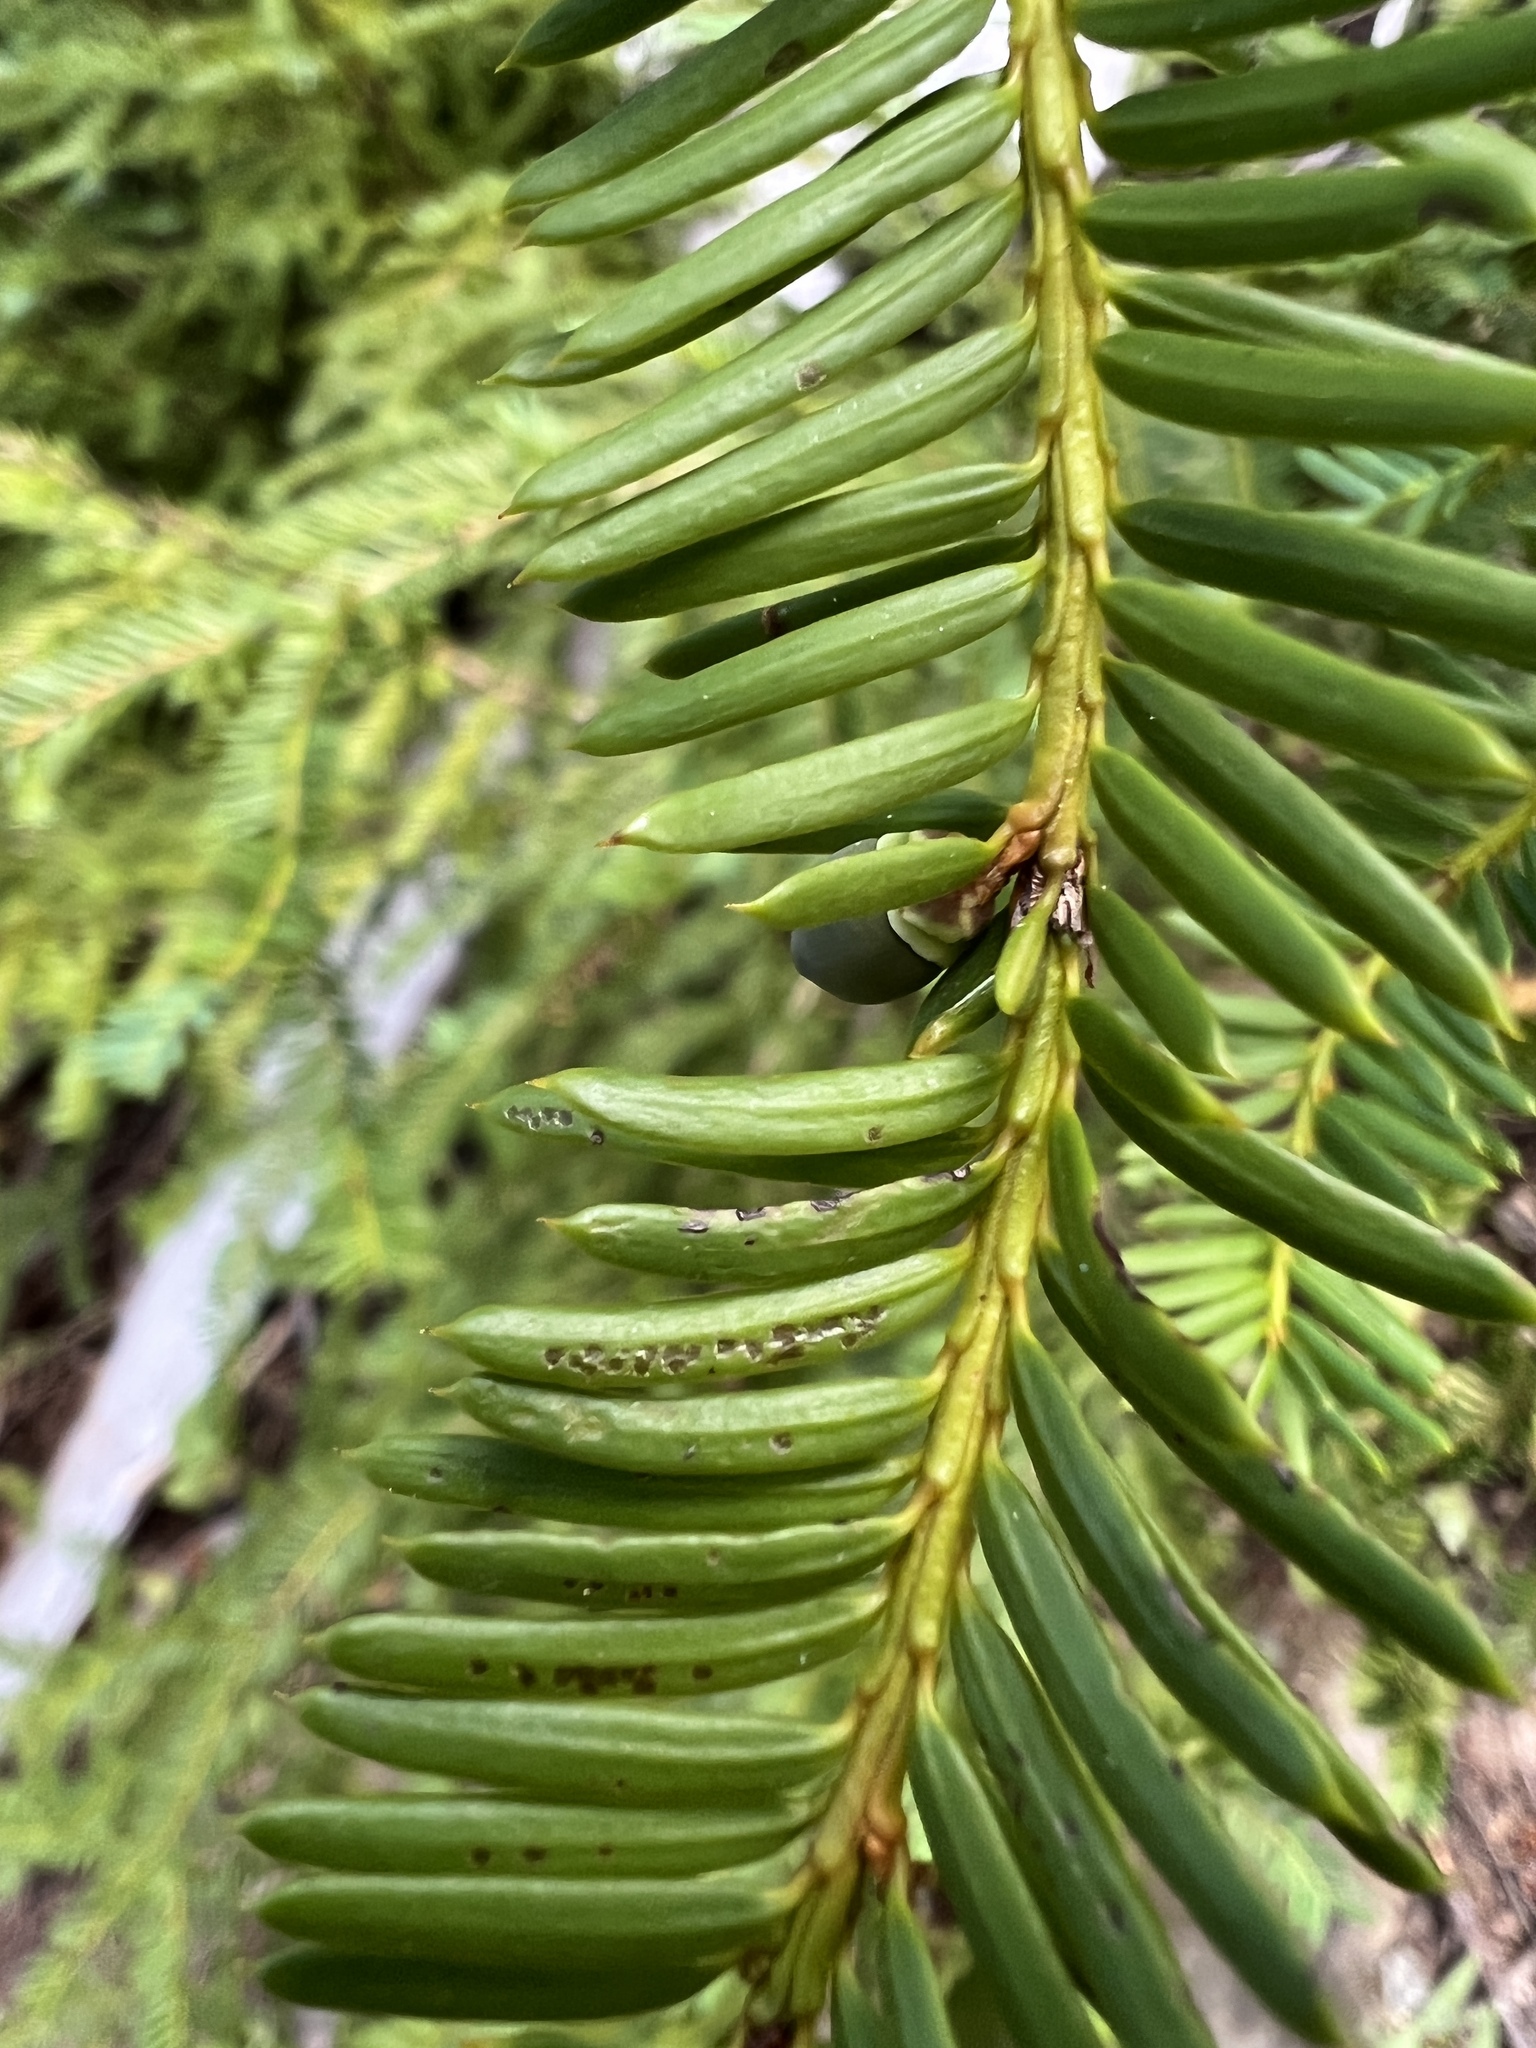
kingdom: Plantae
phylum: Tracheophyta
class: Pinopsida
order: Pinales
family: Taxaceae
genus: Taxus
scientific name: Taxus brevifolia
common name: Pacific yew
